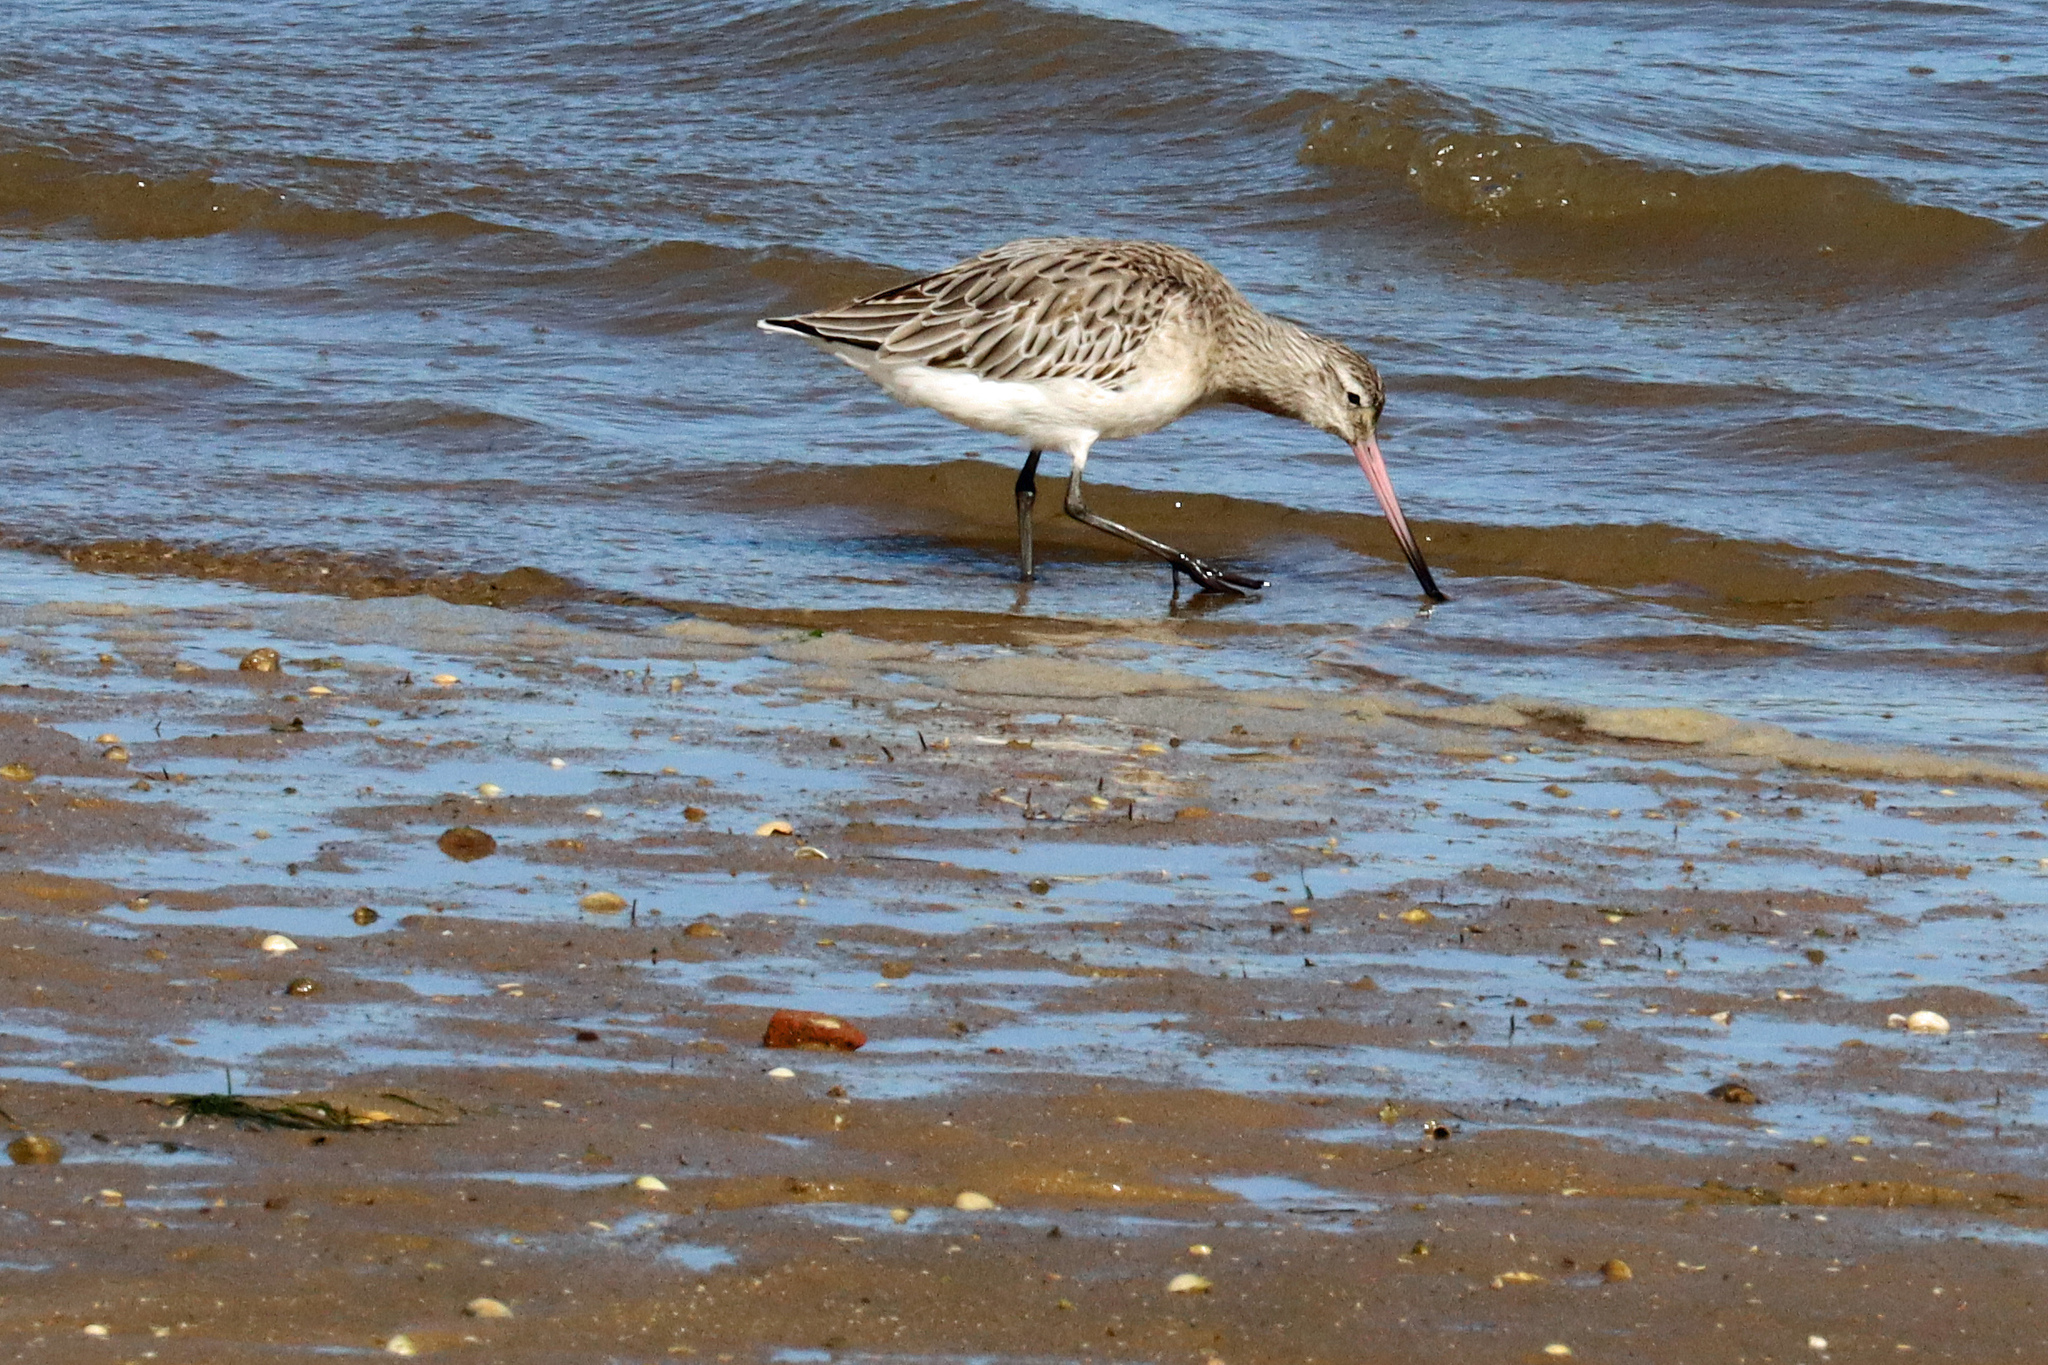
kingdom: Animalia
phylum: Chordata
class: Aves
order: Charadriiformes
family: Scolopacidae
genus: Limosa
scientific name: Limosa lapponica
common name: Bar-tailed godwit
